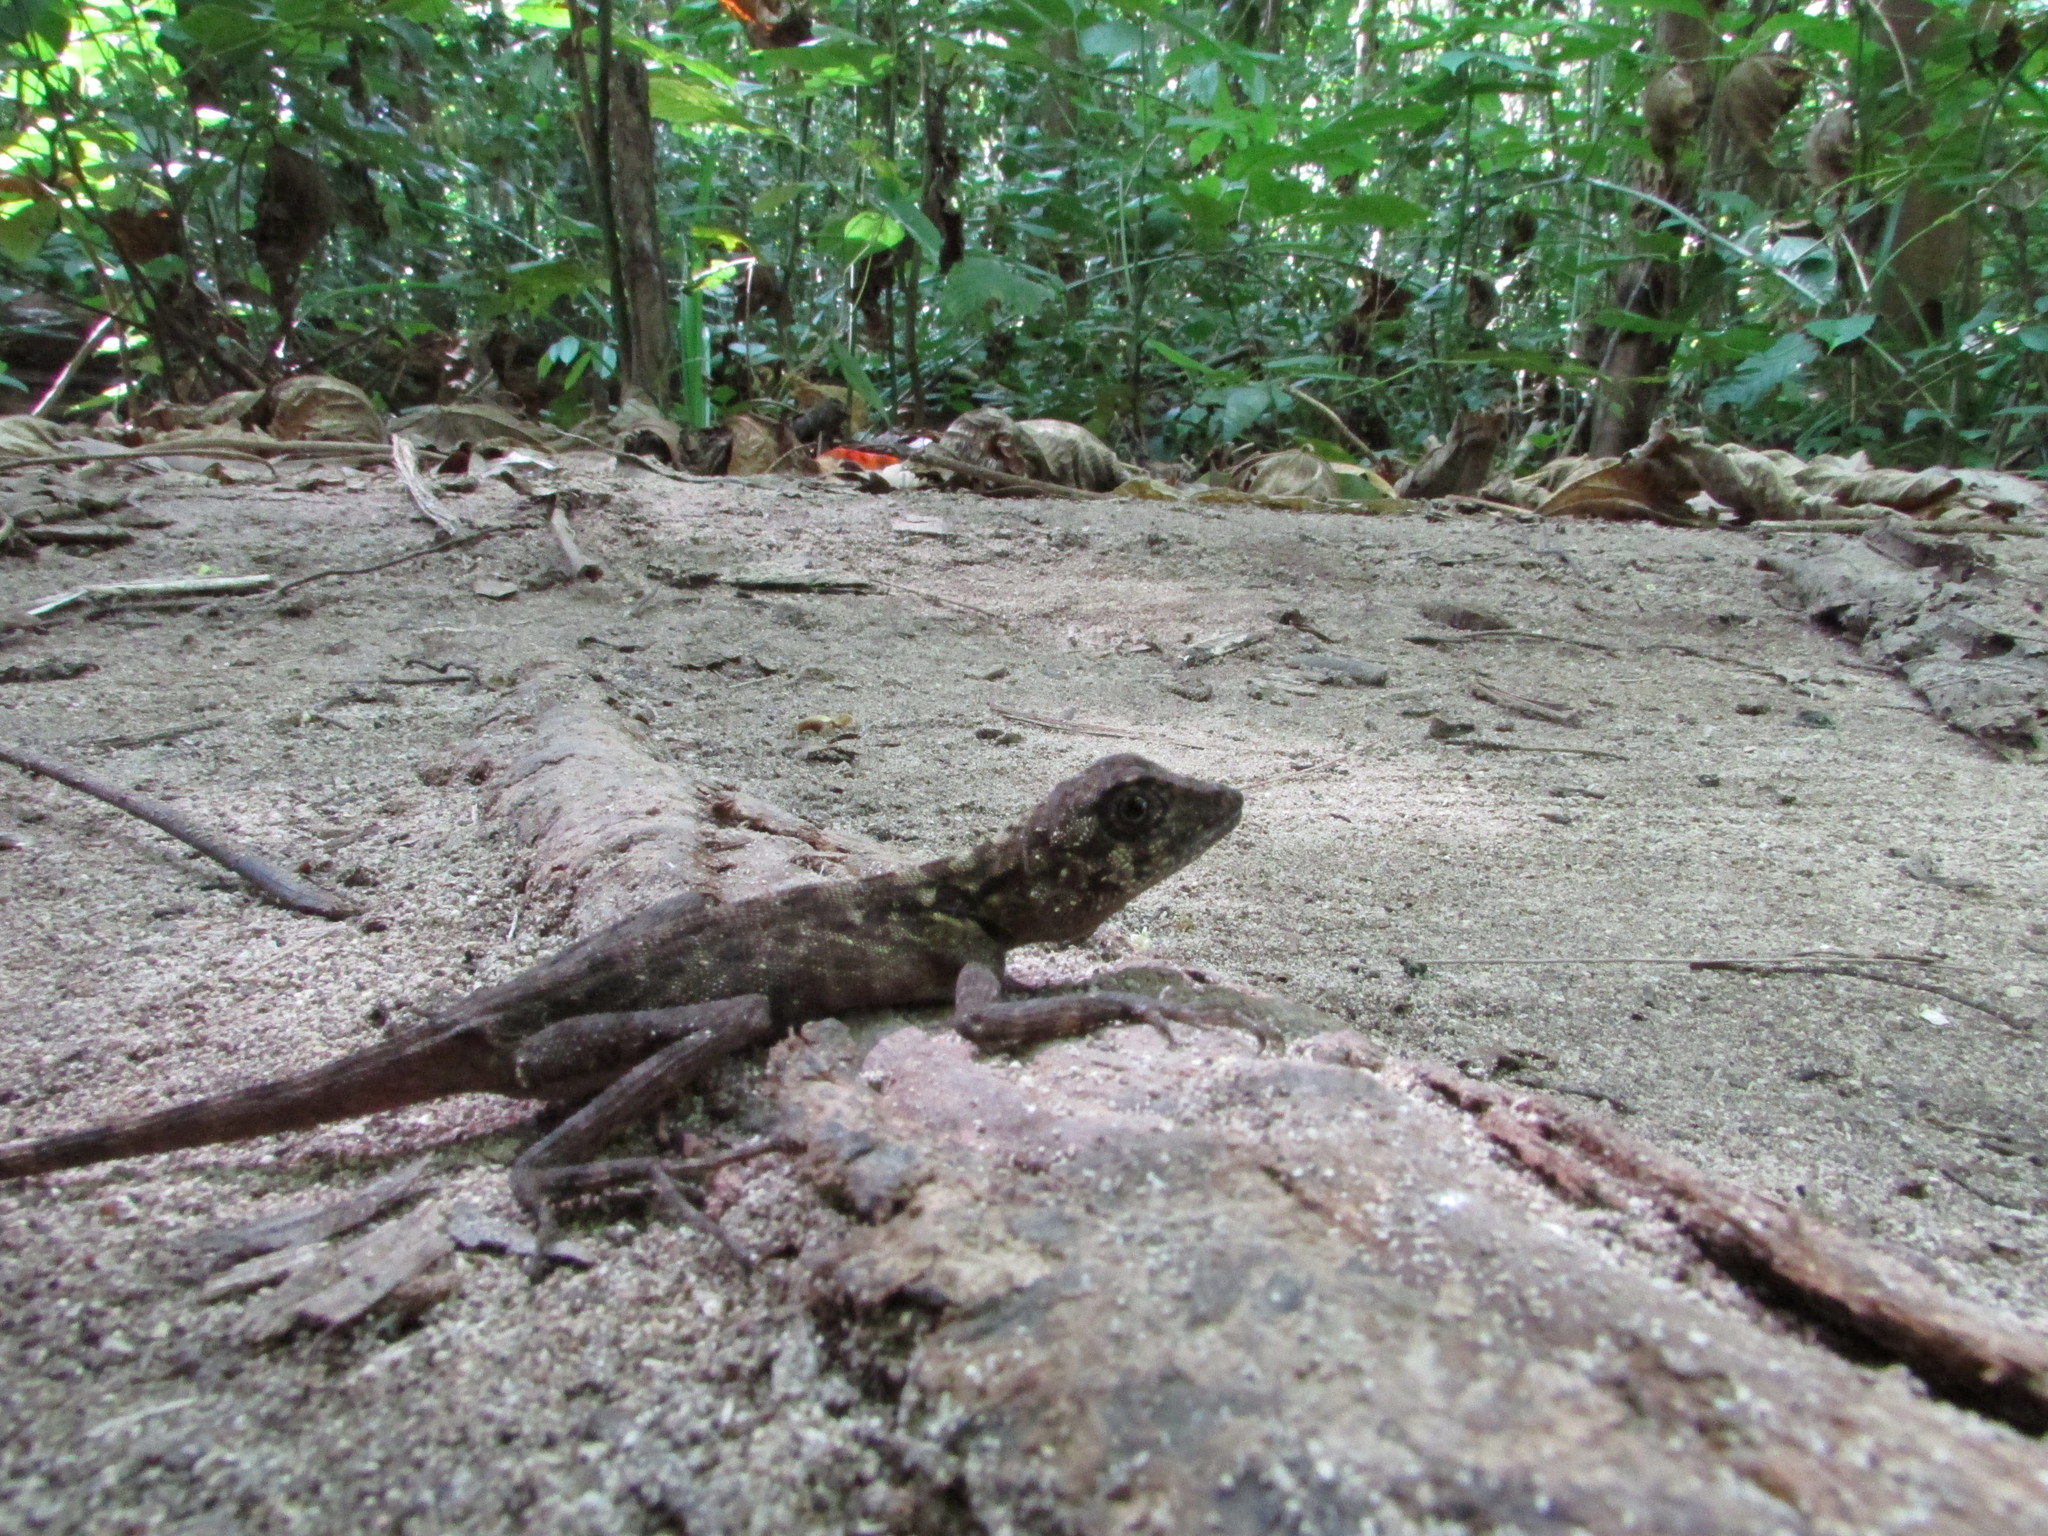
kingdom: Animalia
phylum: Chordata
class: Squamata
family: Agamidae
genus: Coryphophylax
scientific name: Coryphophylax subcristatus
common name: Short-crested bay island forest lizard
